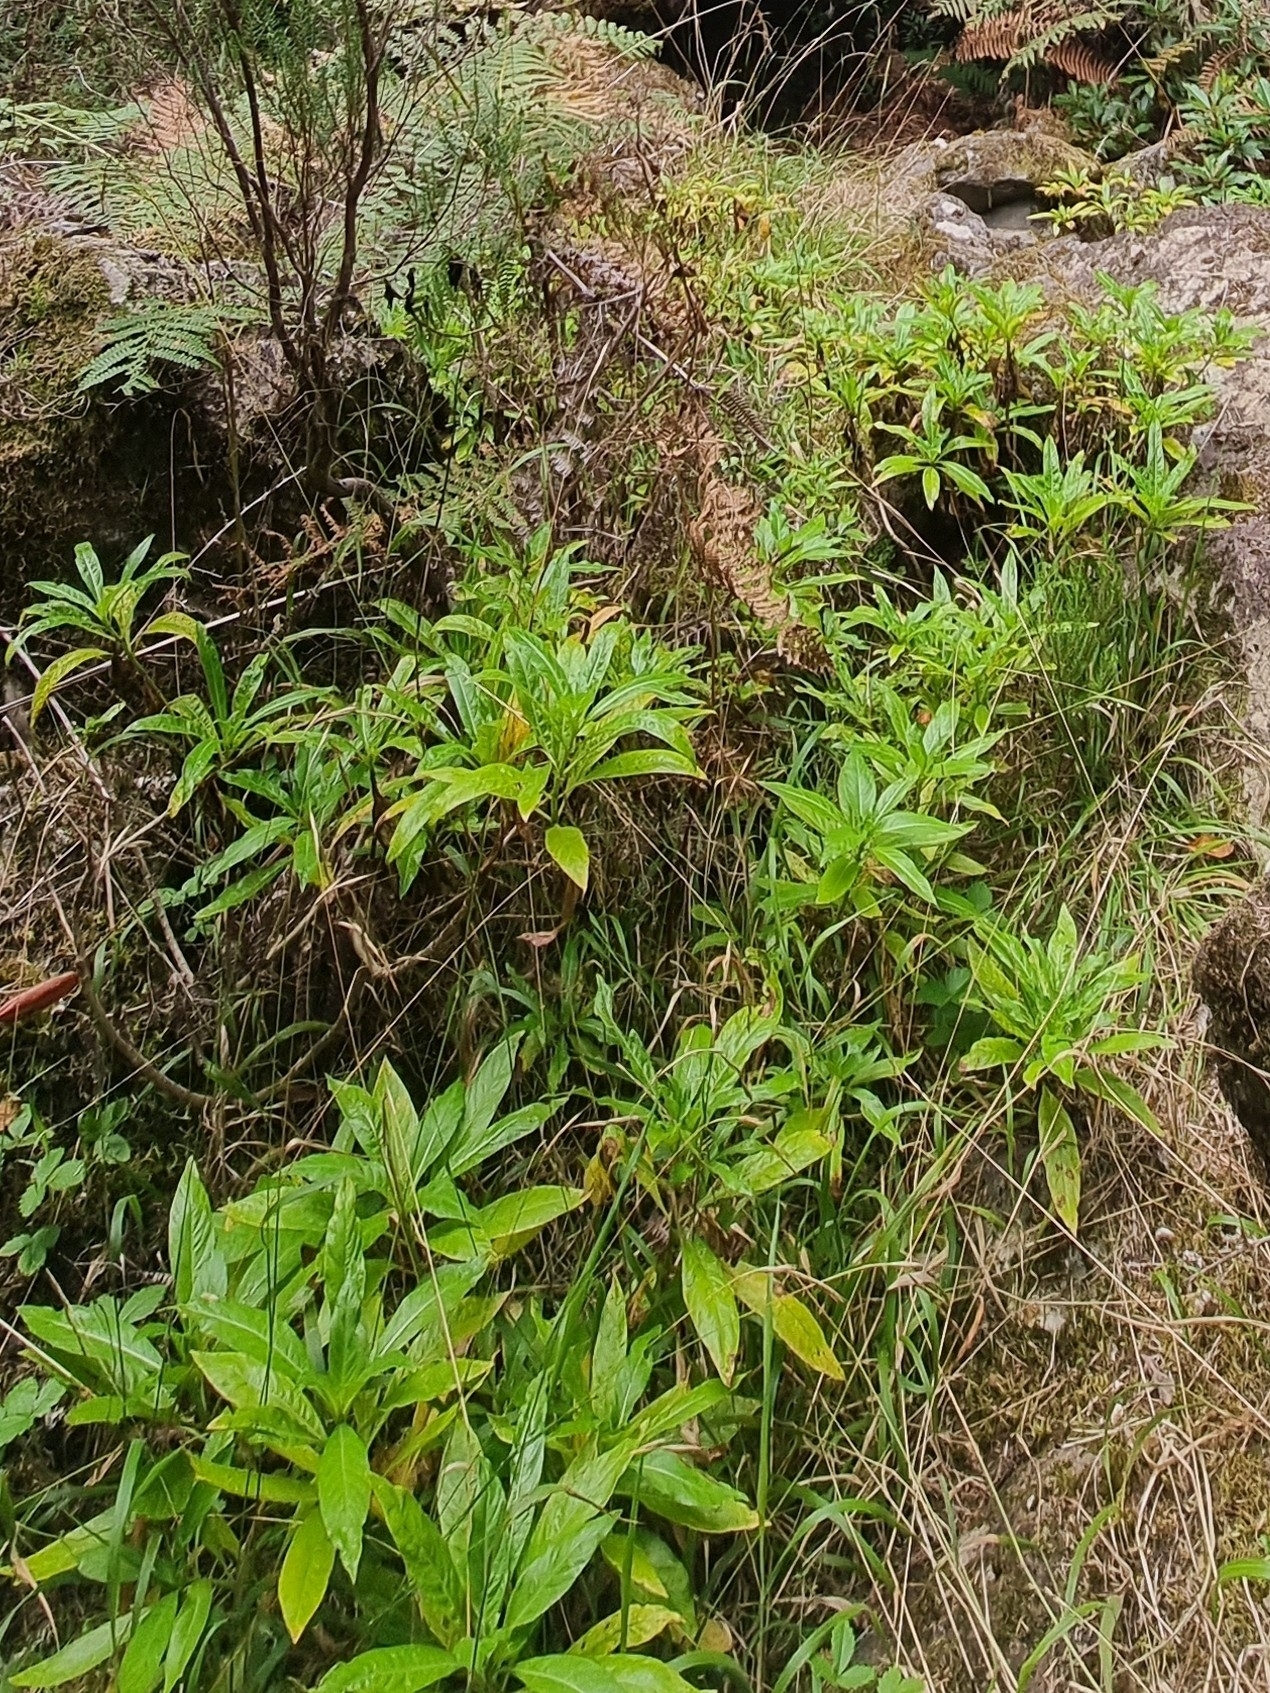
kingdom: Plantae
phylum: Tracheophyta
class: Magnoliopsida
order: Gentianales
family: Rubiaceae
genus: Phyllis
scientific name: Phyllis nobla
